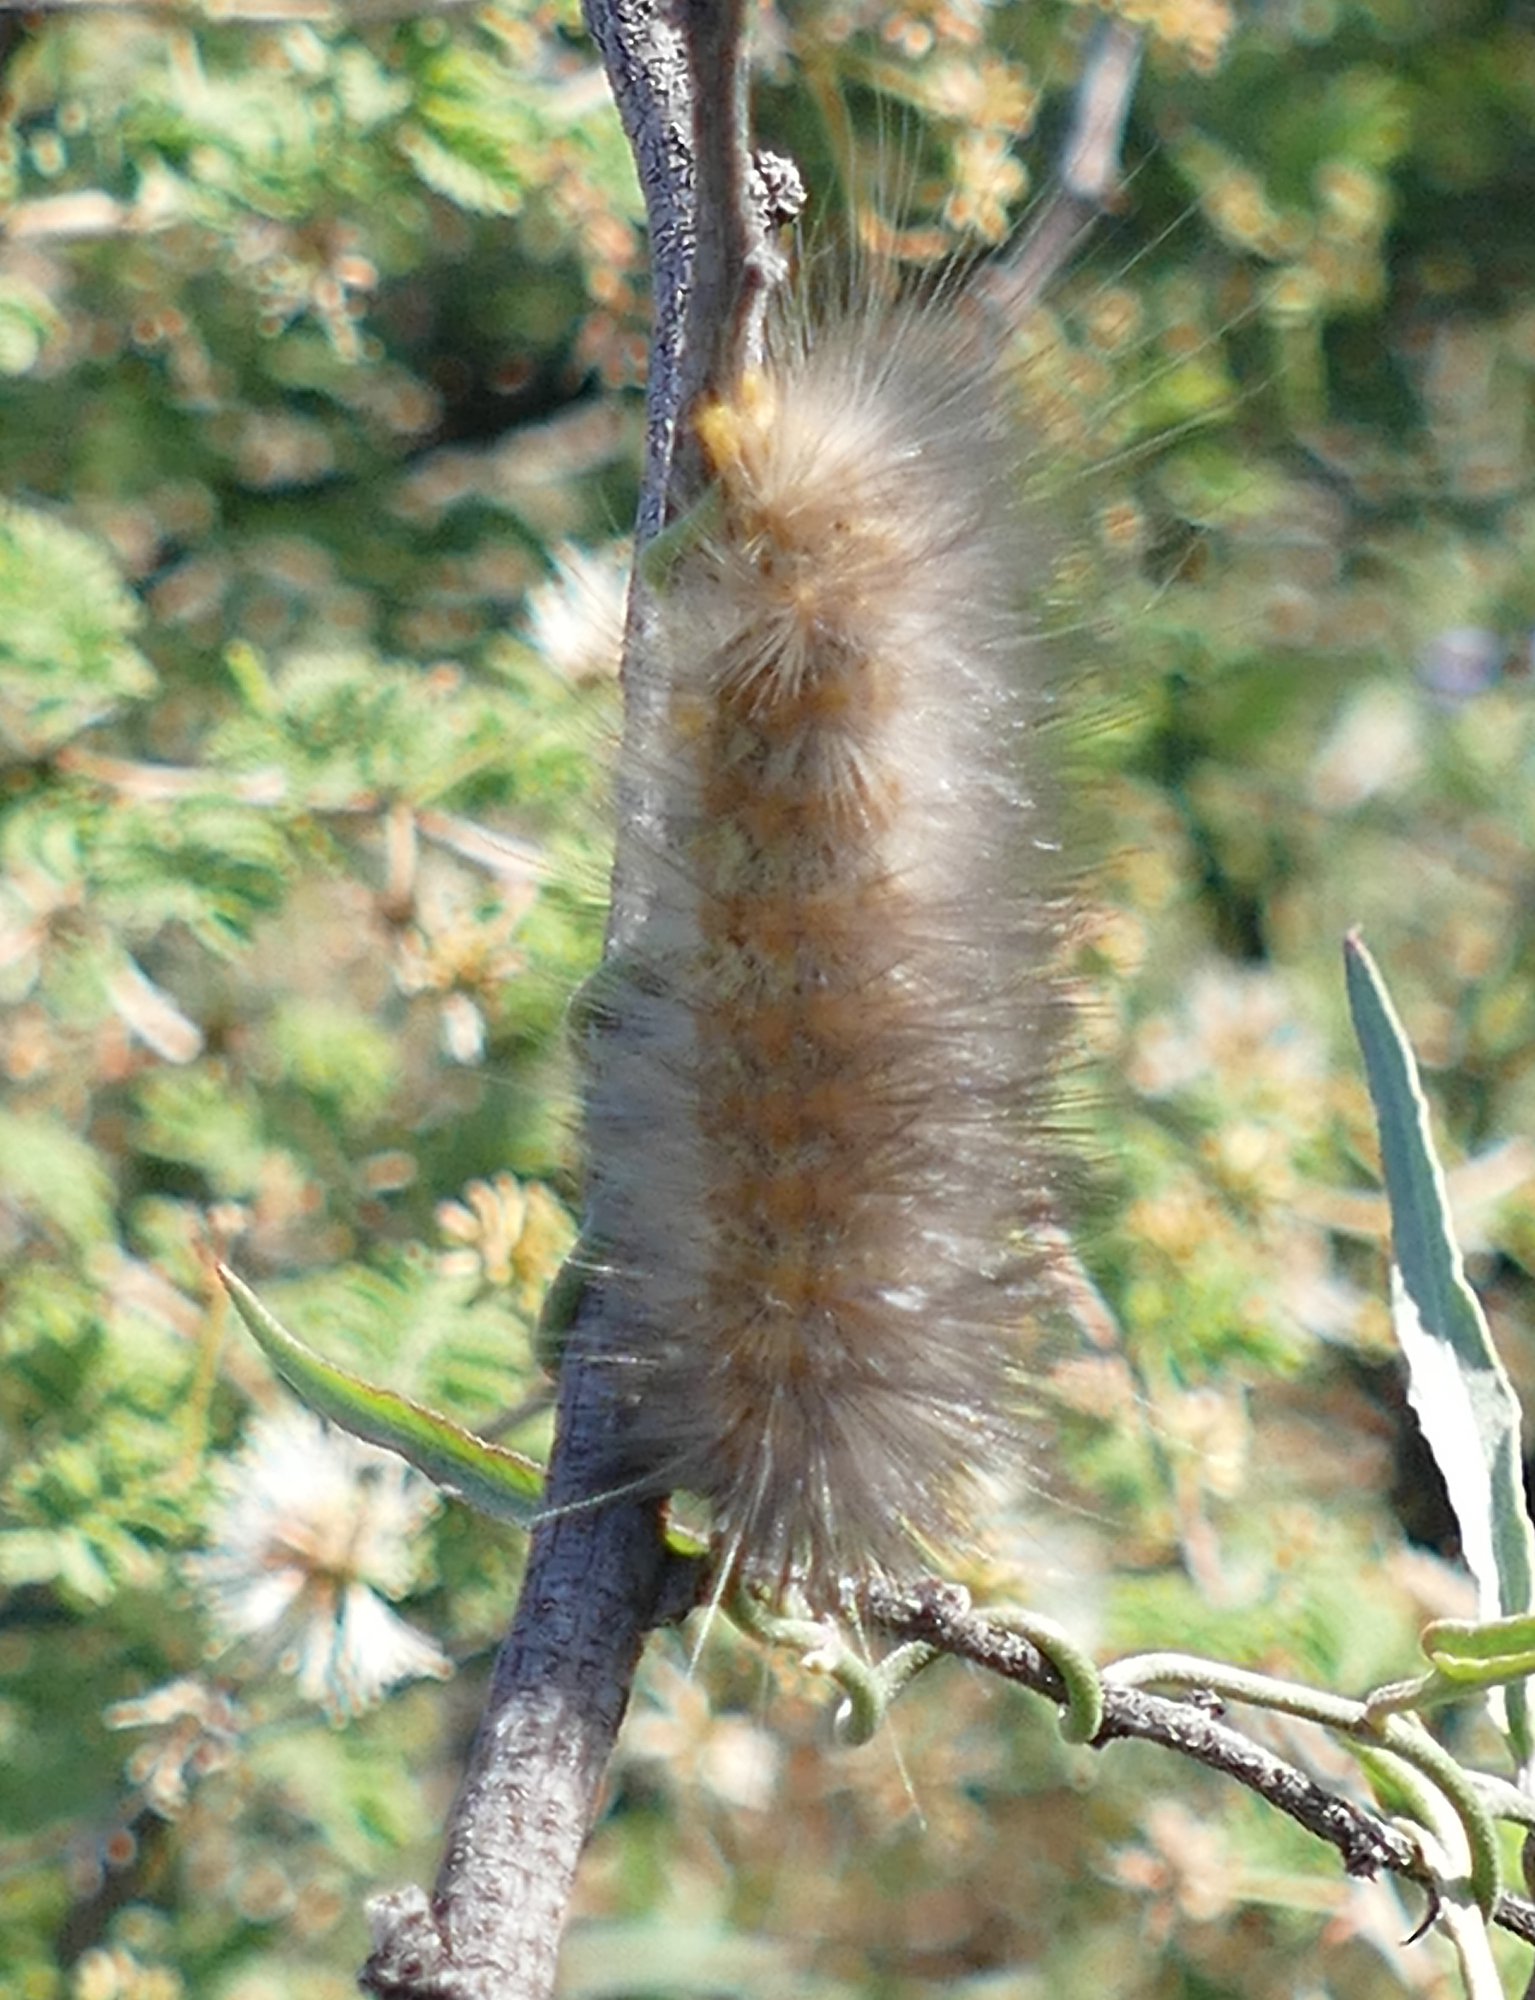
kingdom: Animalia
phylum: Arthropoda
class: Insecta
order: Lepidoptera
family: Erebidae
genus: Estigmene
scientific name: Estigmene
